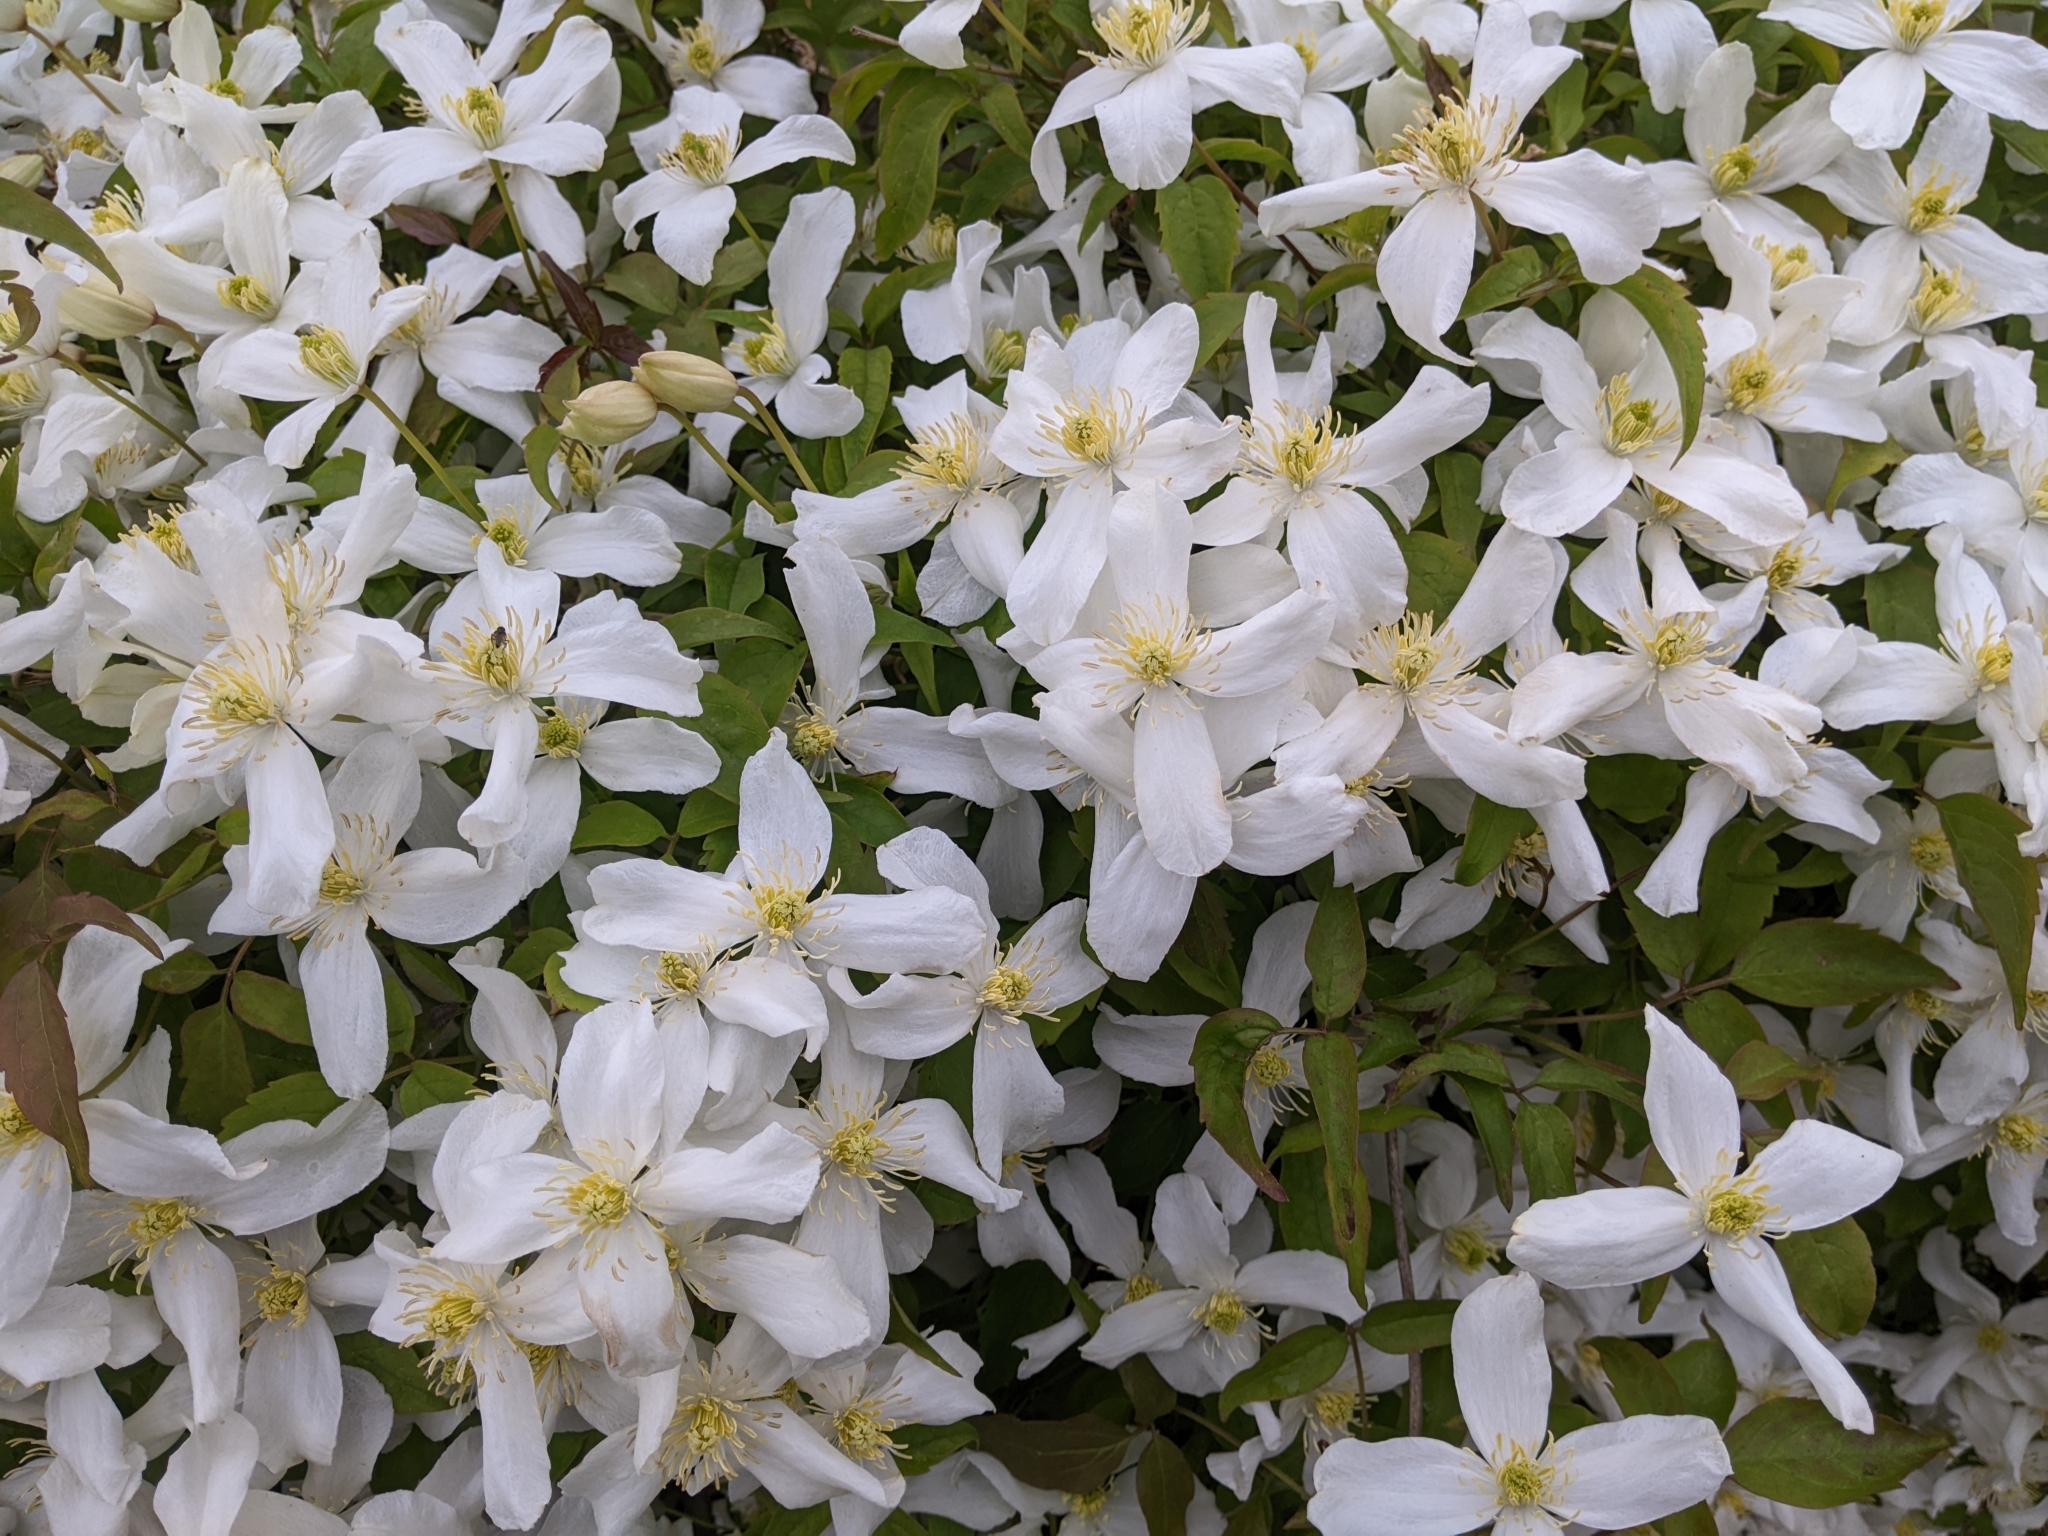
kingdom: Plantae
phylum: Tracheophyta
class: Magnoliopsida
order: Ranunculales
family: Ranunculaceae
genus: Clematis
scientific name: Clematis montana
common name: Himalayan clematis
